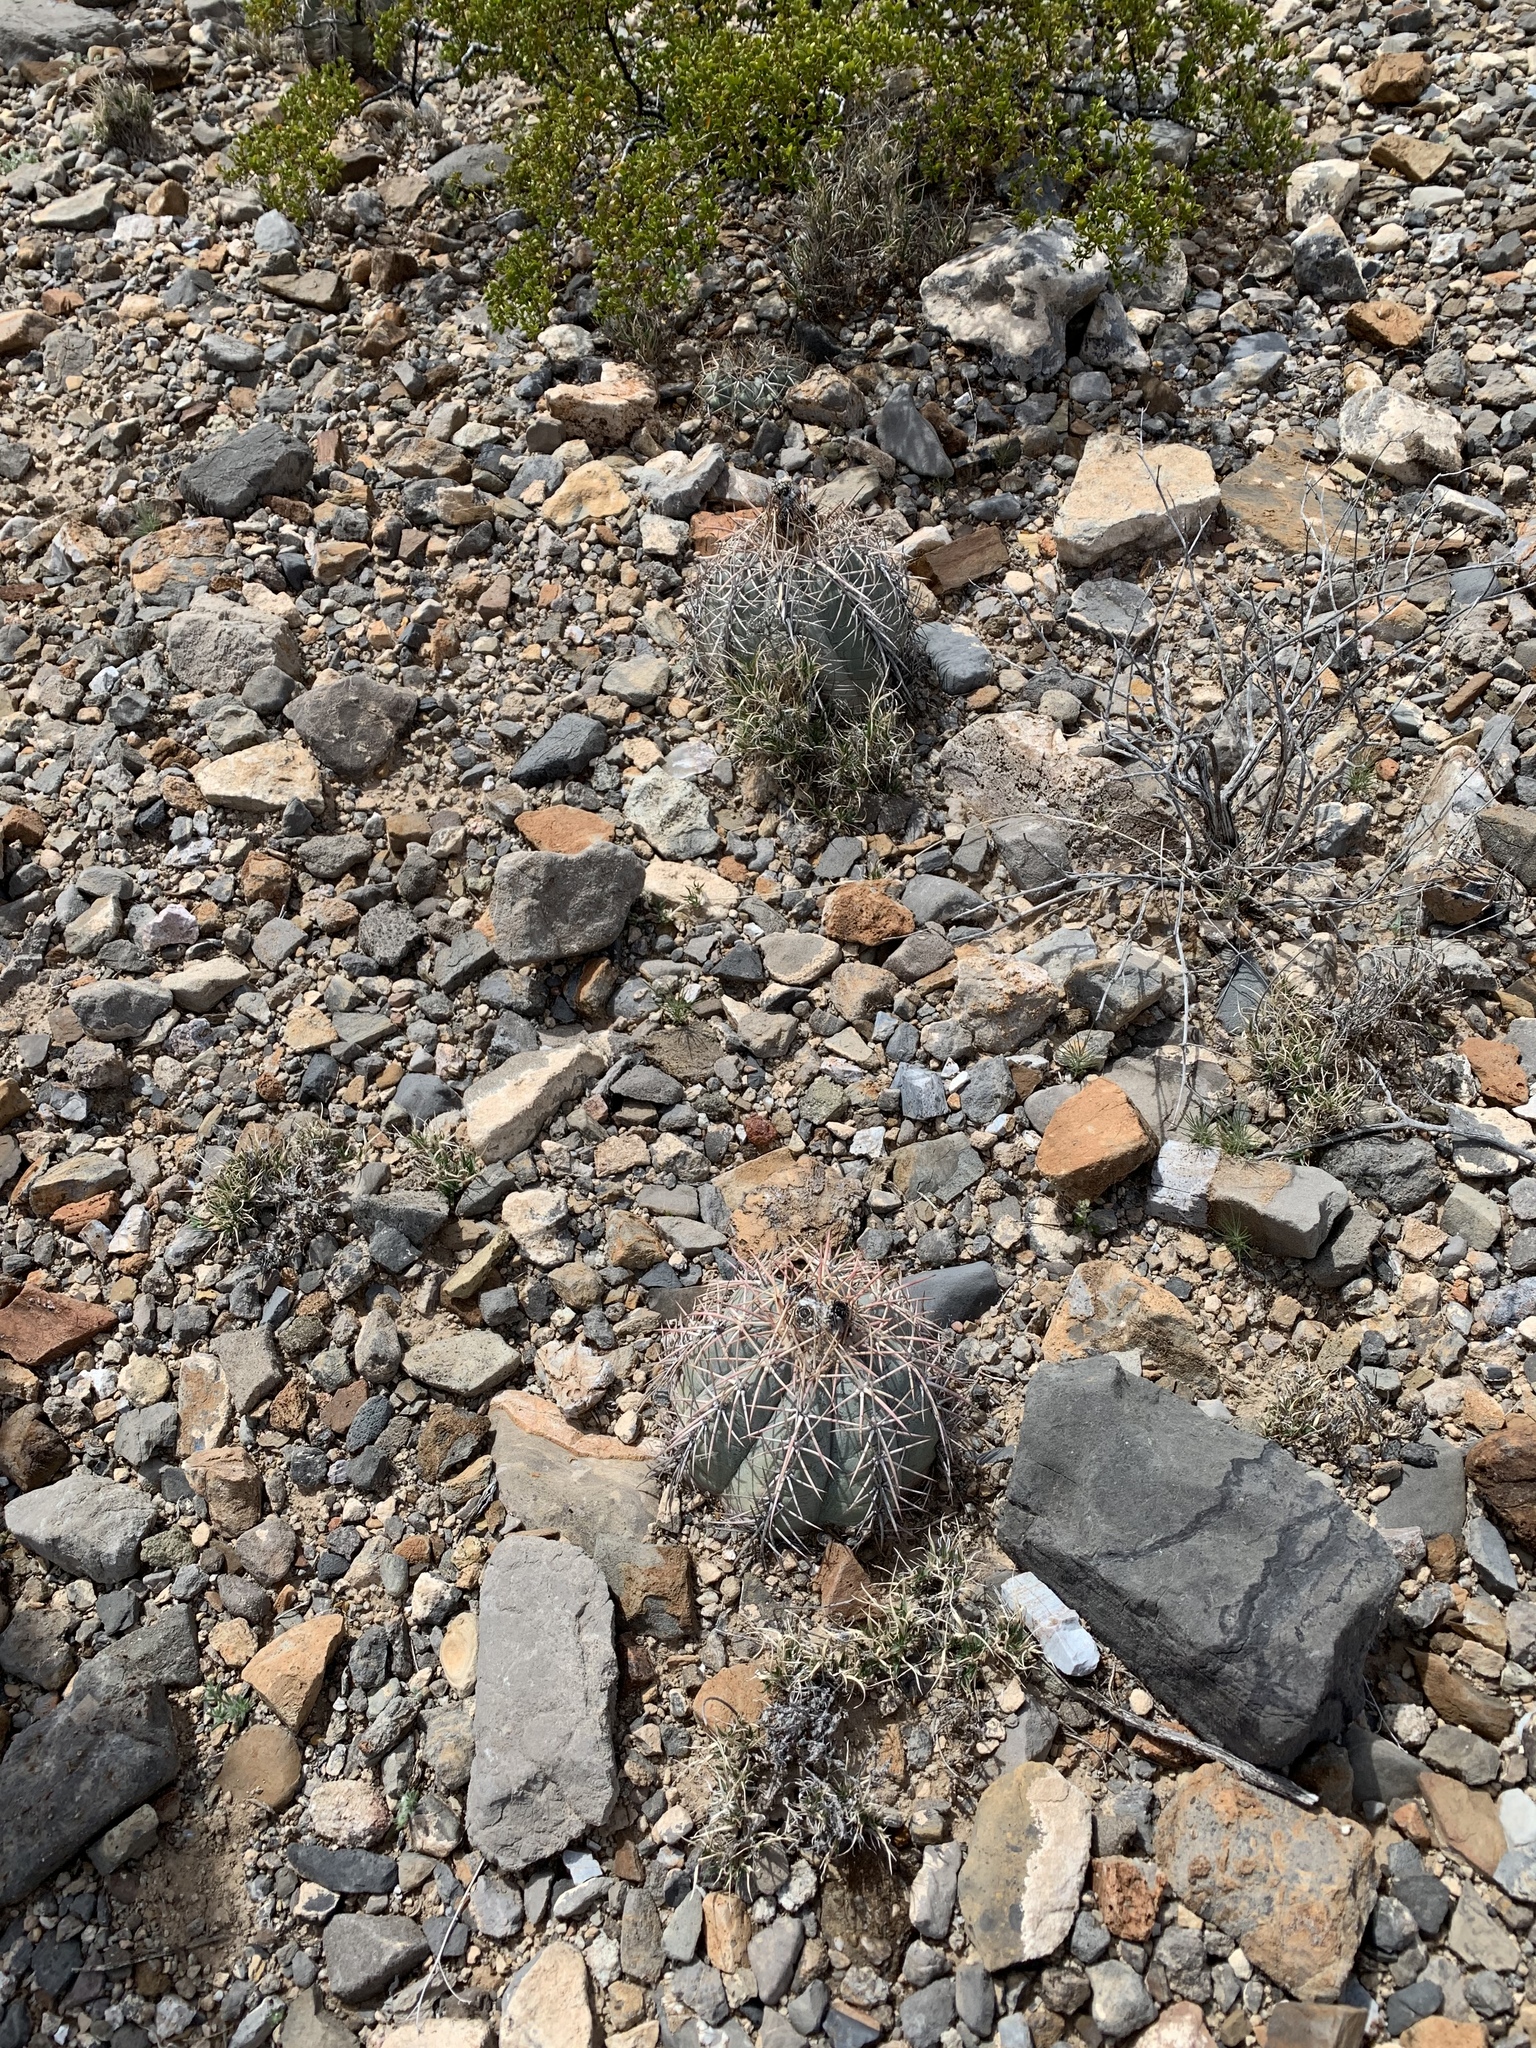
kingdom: Plantae
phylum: Tracheophyta
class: Magnoliopsida
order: Caryophyllales
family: Cactaceae
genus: Echinocactus
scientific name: Echinocactus horizonthalonius
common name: Devilshead
